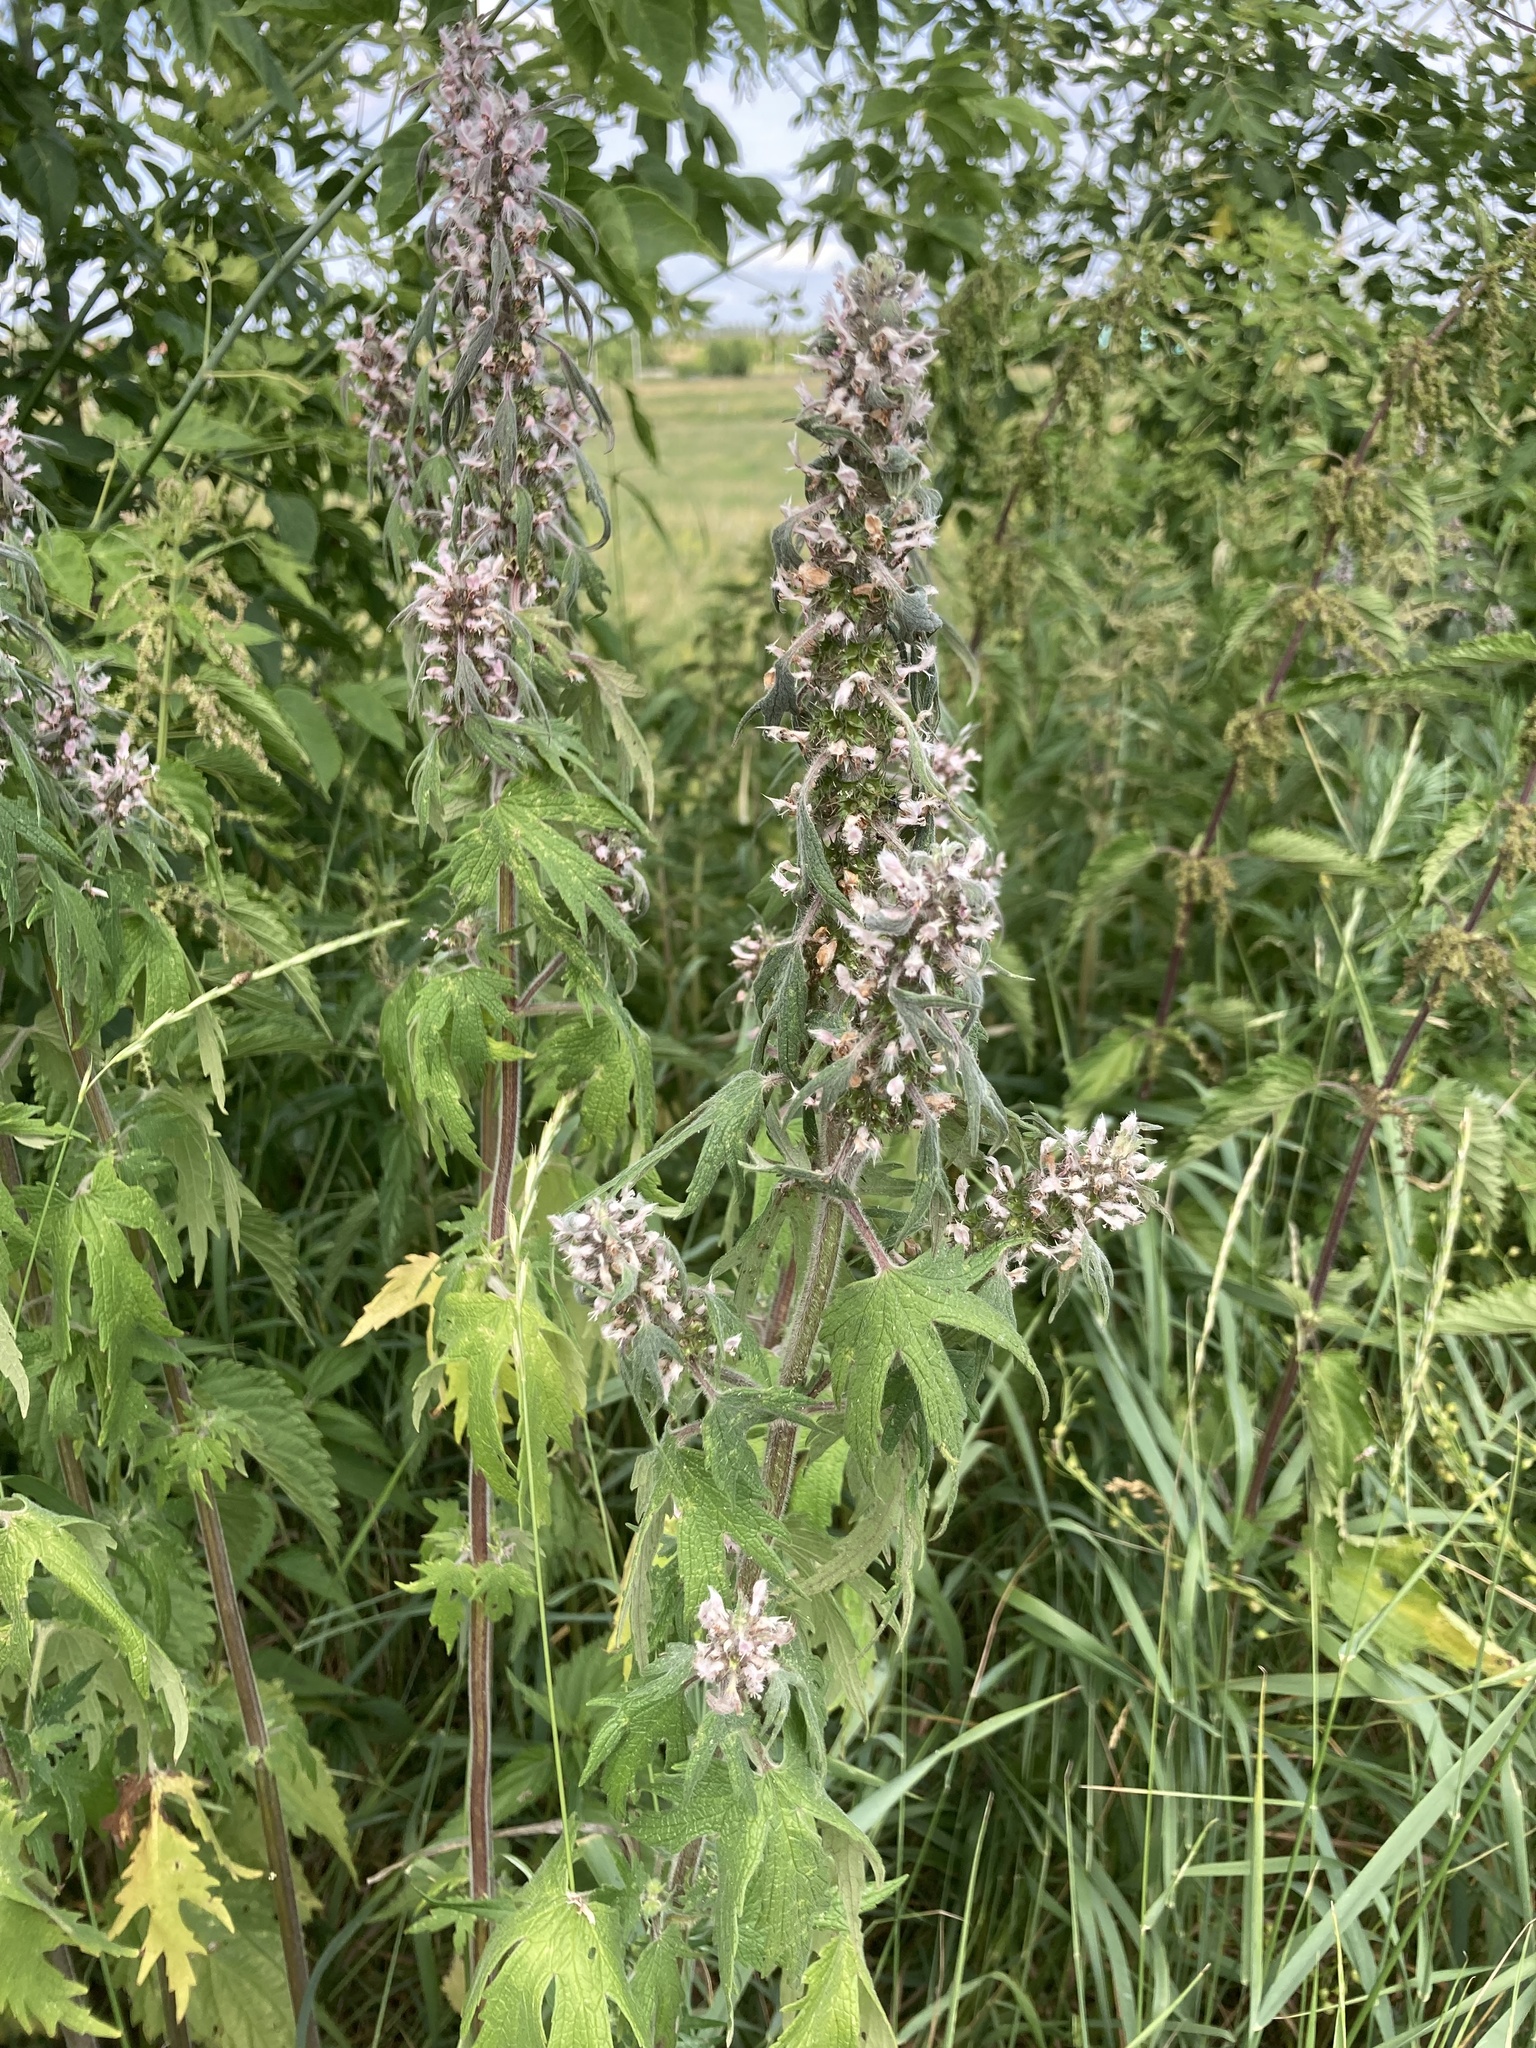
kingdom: Plantae
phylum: Tracheophyta
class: Magnoliopsida
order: Lamiales
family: Lamiaceae
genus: Leonurus
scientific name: Leonurus quinquelobatus
